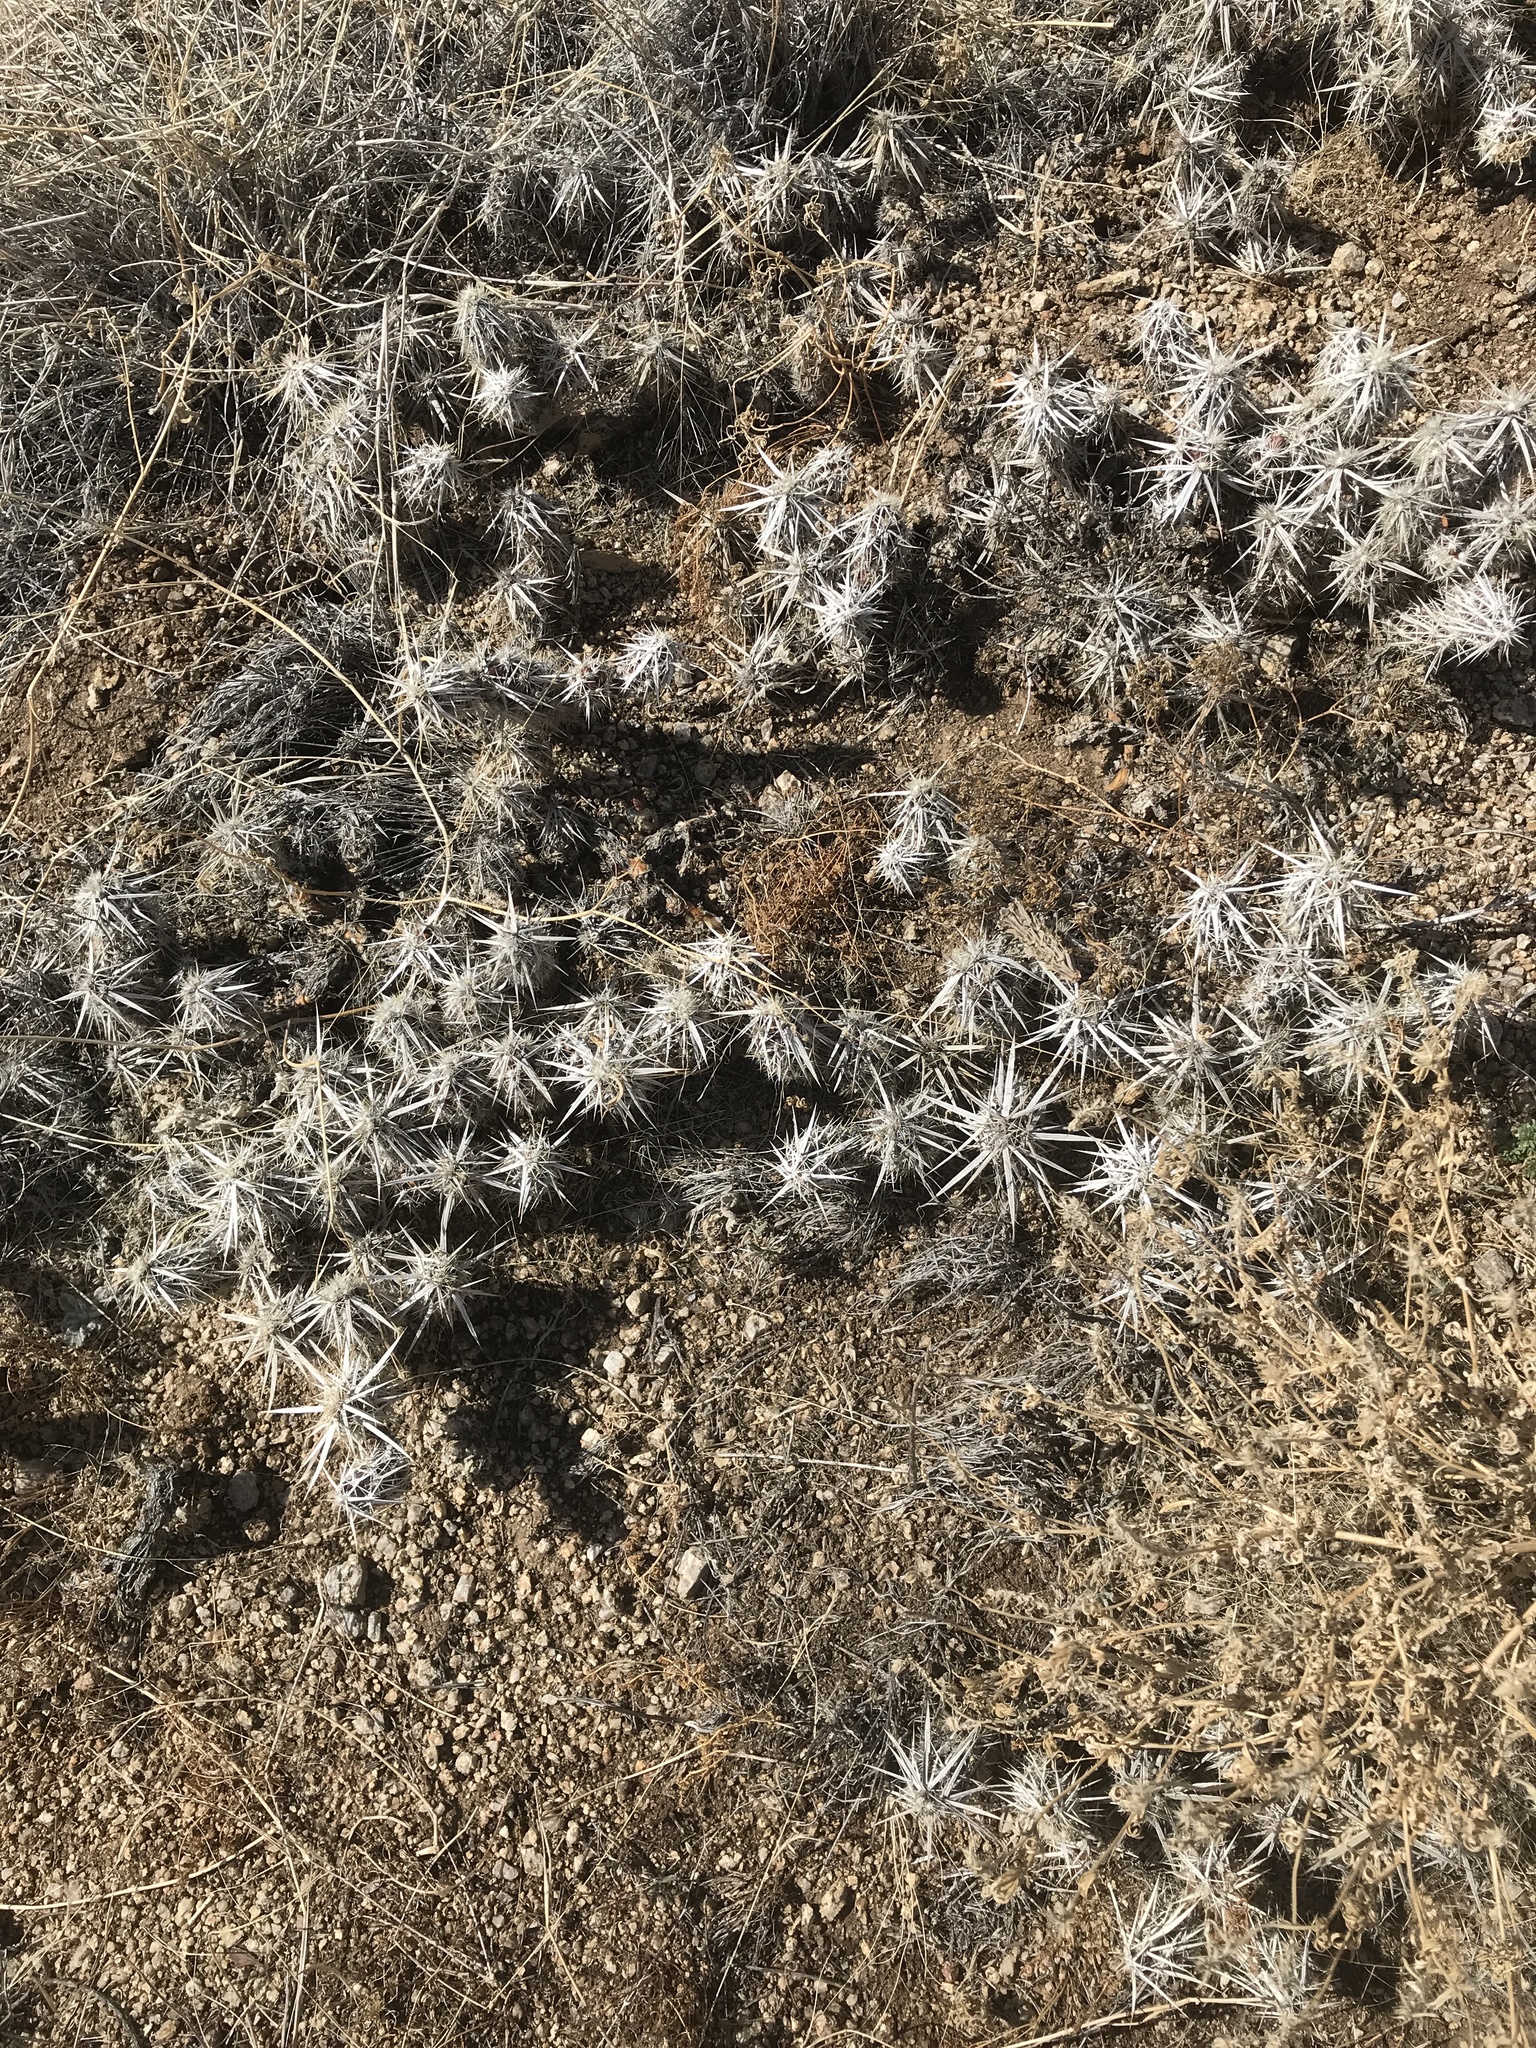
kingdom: Plantae
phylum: Tracheophyta
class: Magnoliopsida
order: Caryophyllales
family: Cactaceae
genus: Grusonia
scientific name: Grusonia clavata
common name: Club cholla
